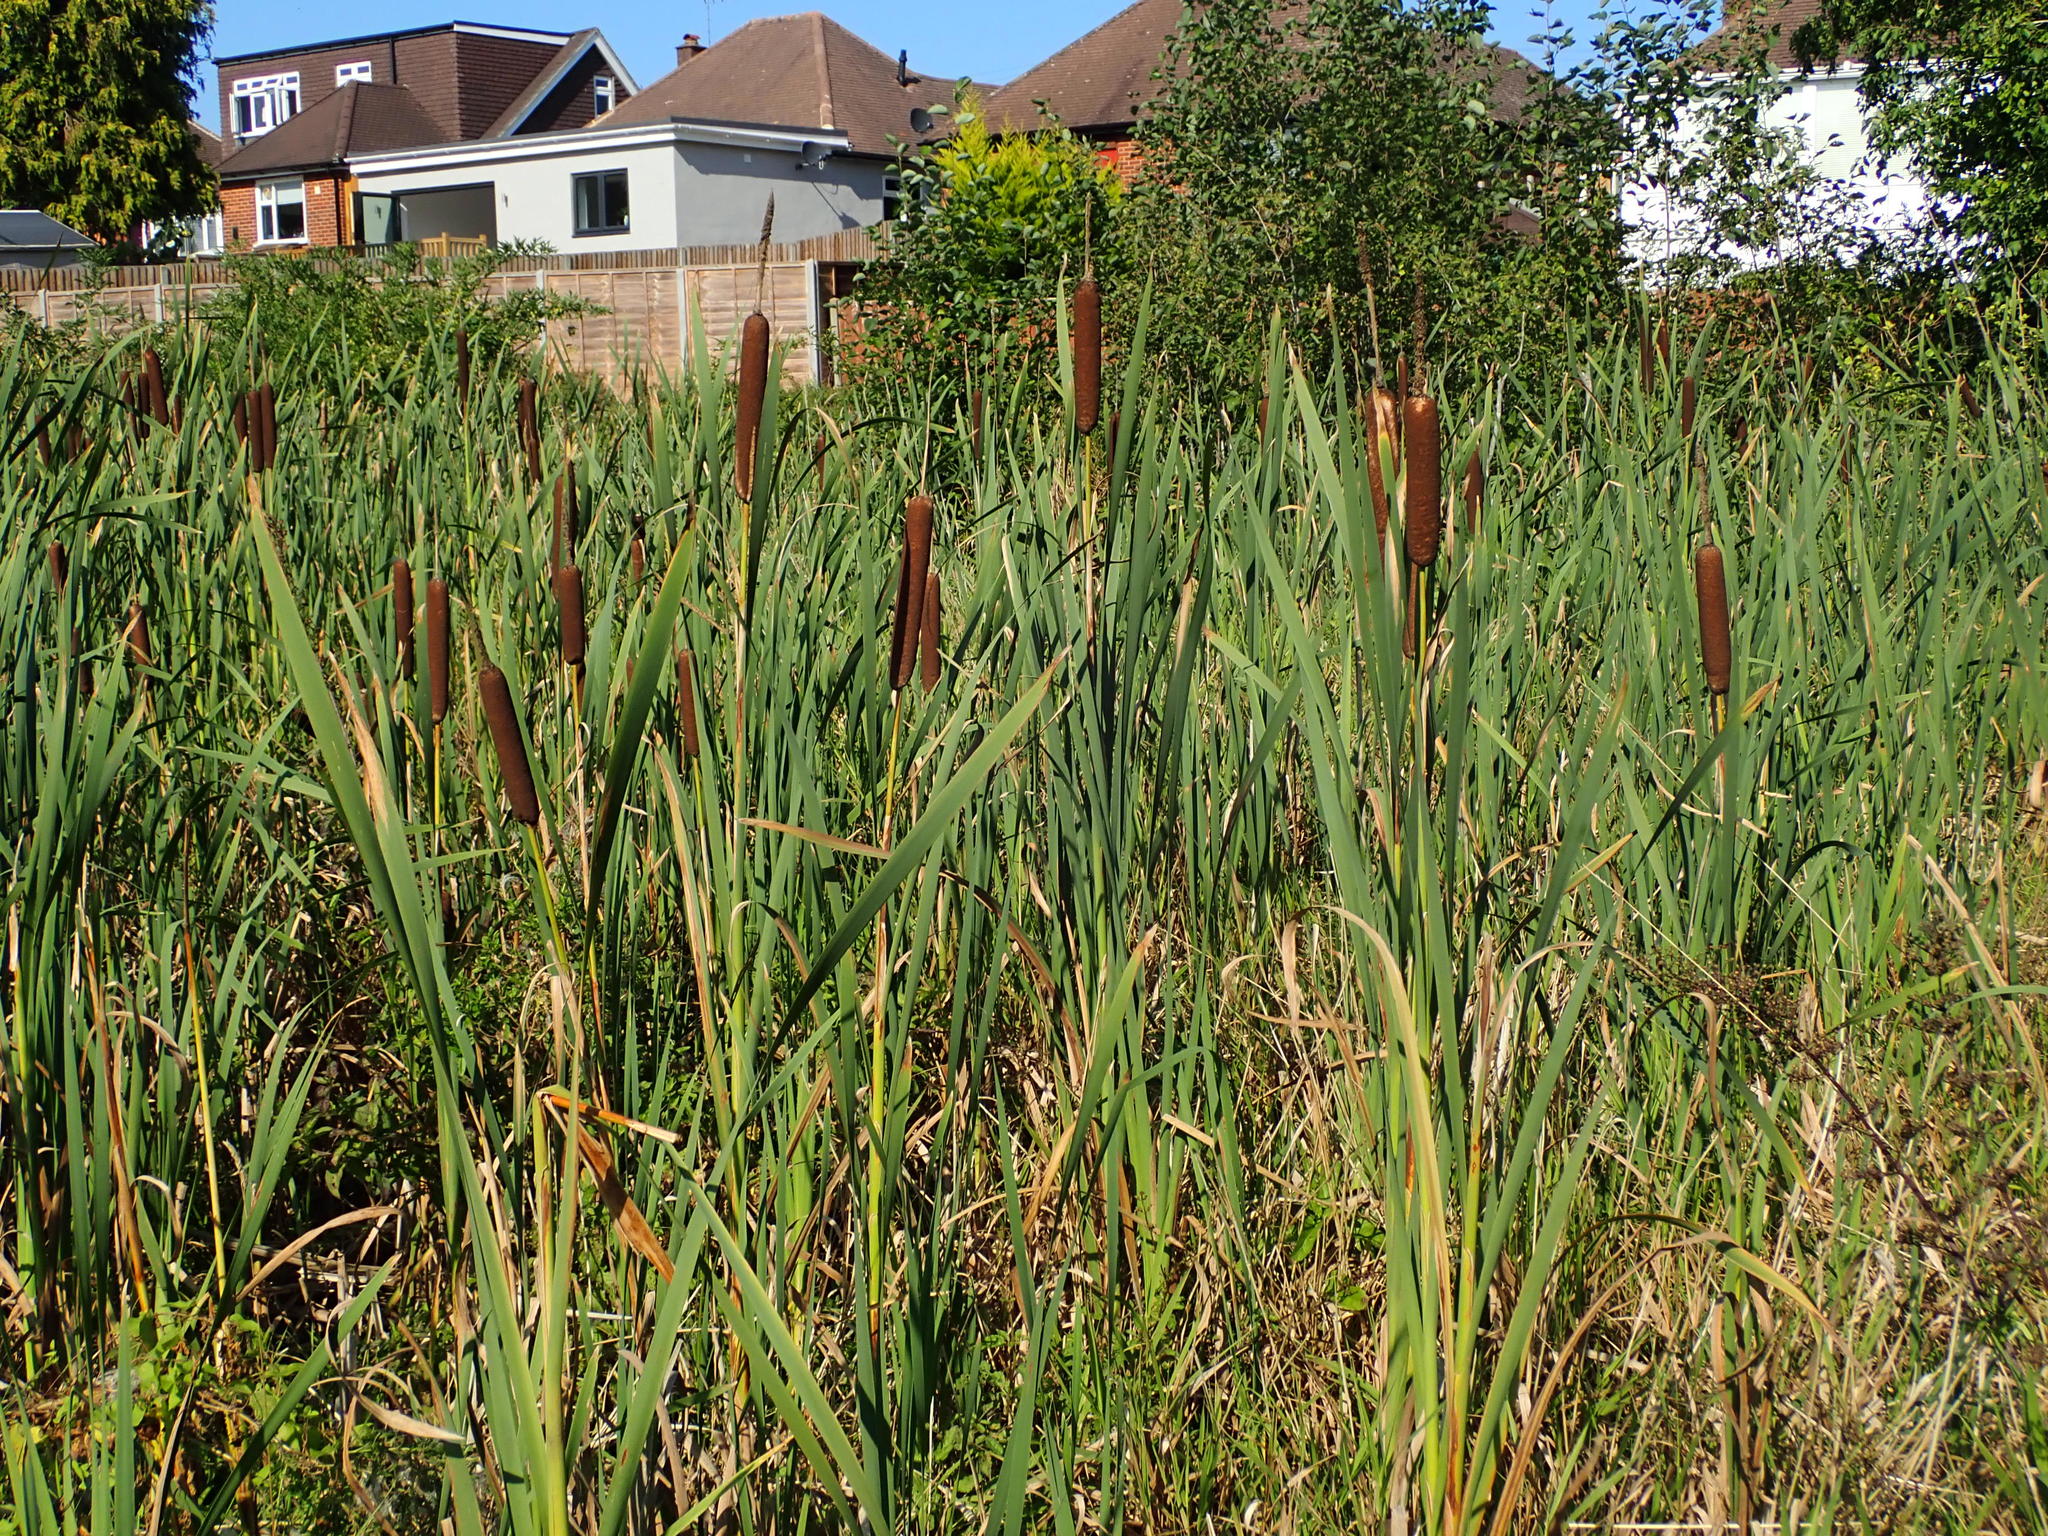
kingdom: Plantae
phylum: Tracheophyta
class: Liliopsida
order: Poales
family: Typhaceae
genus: Typha
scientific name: Typha latifolia
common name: Broadleaf cattail
